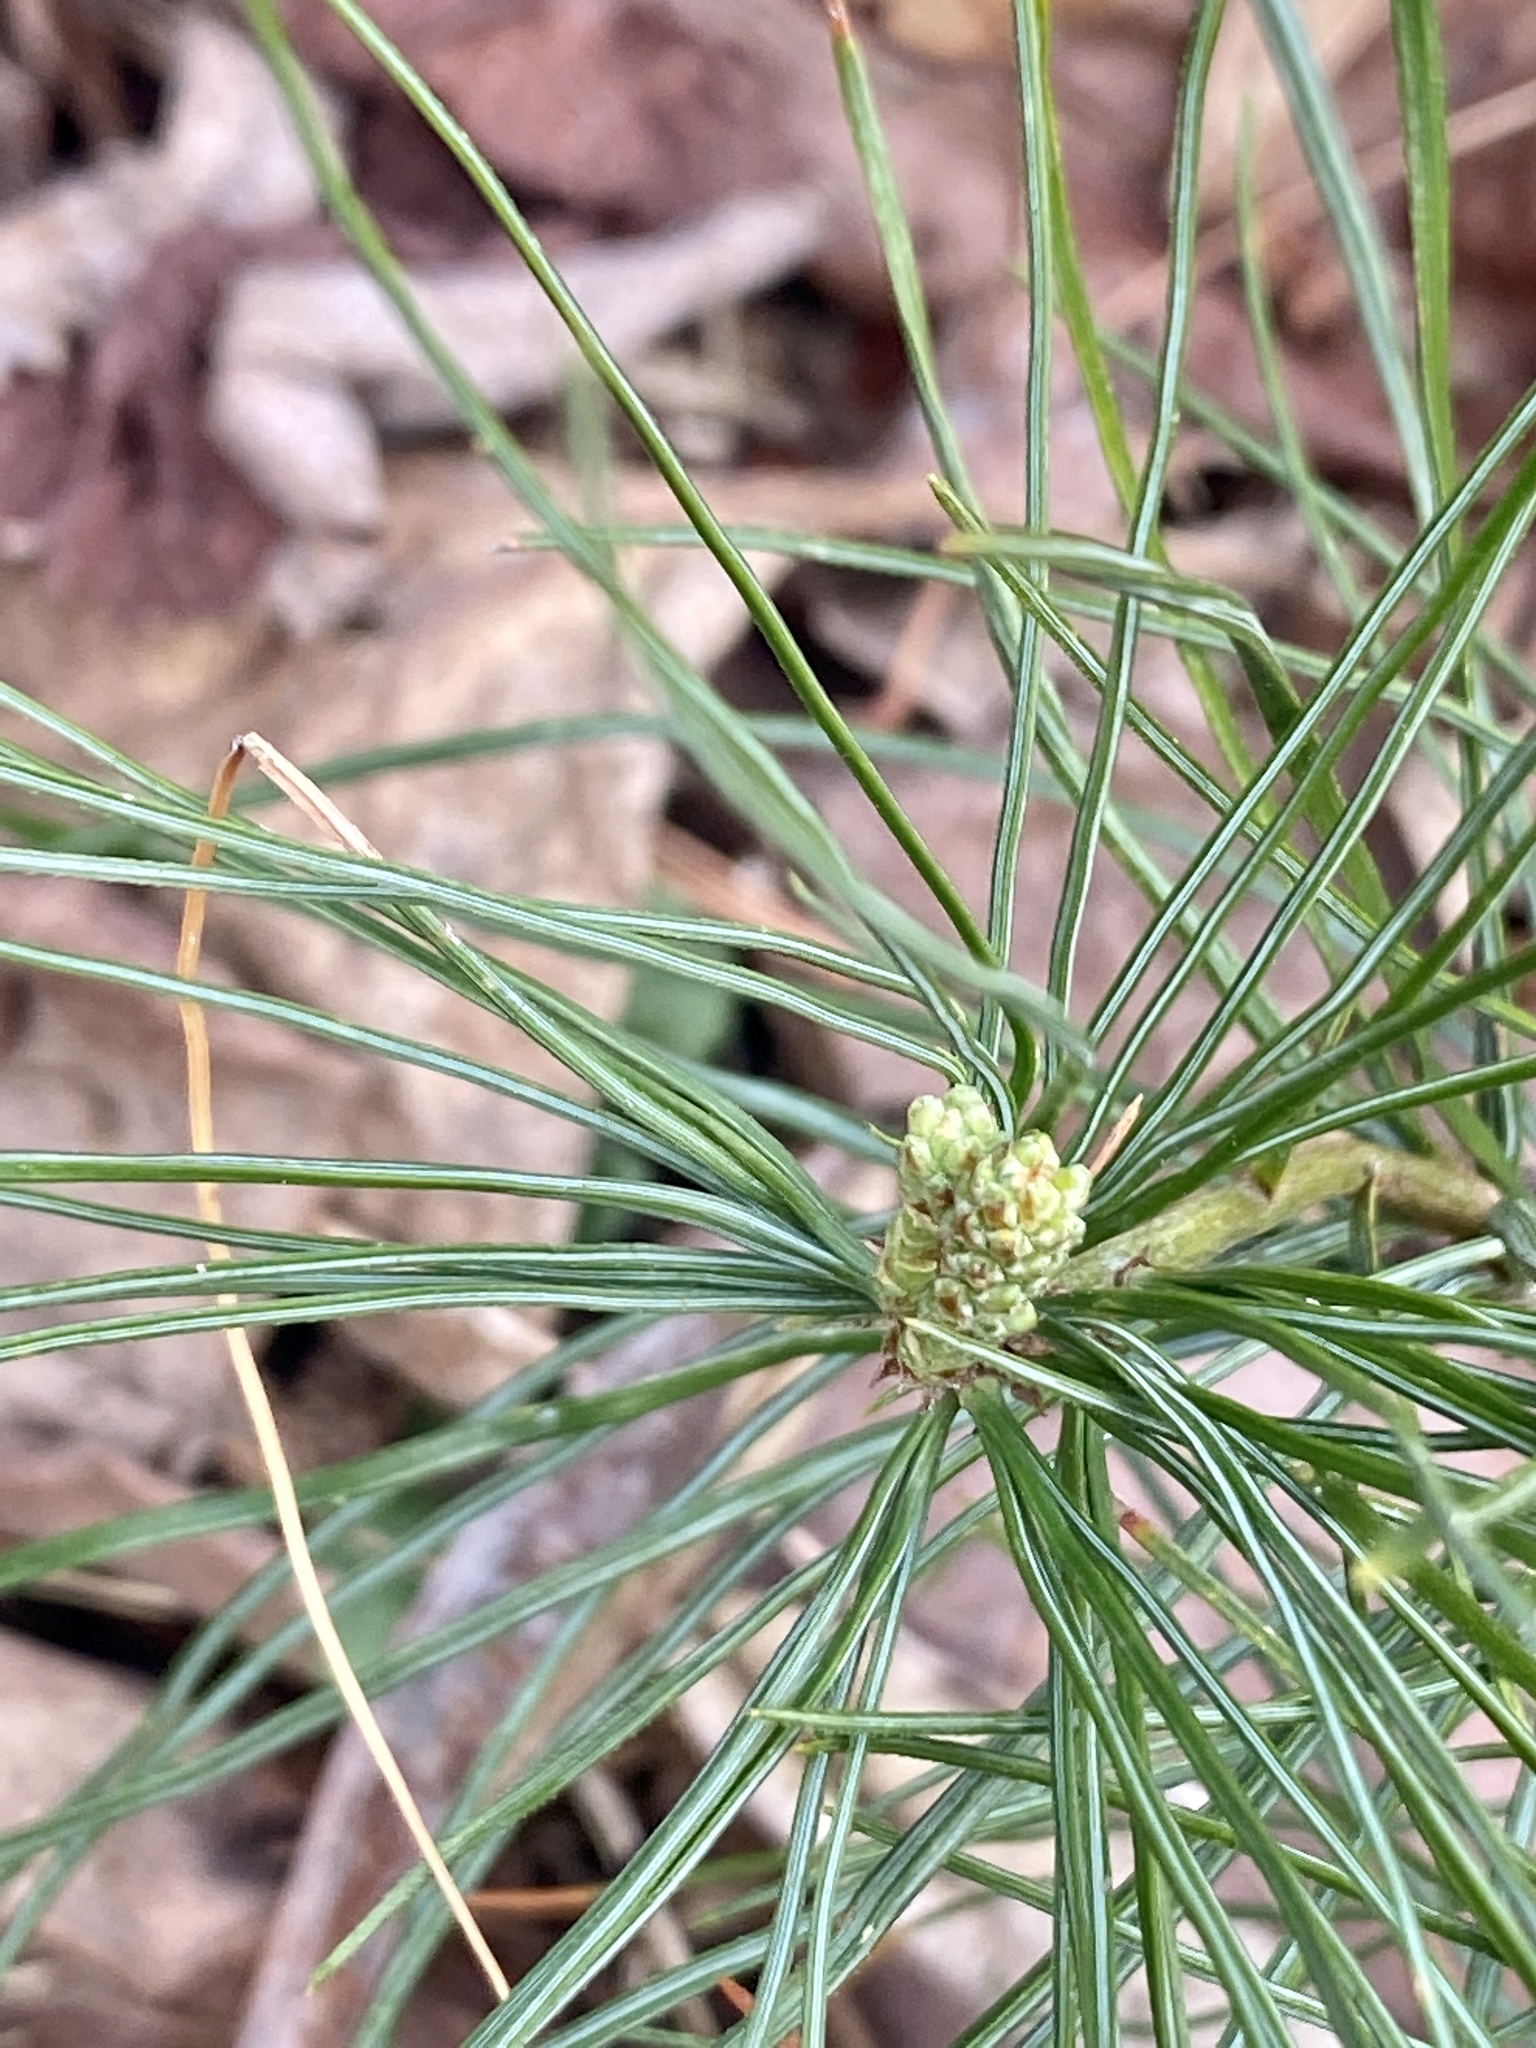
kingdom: Plantae
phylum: Tracheophyta
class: Pinopsida
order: Pinales
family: Pinaceae
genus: Pinus
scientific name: Pinus strobus
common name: Weymouth pine
